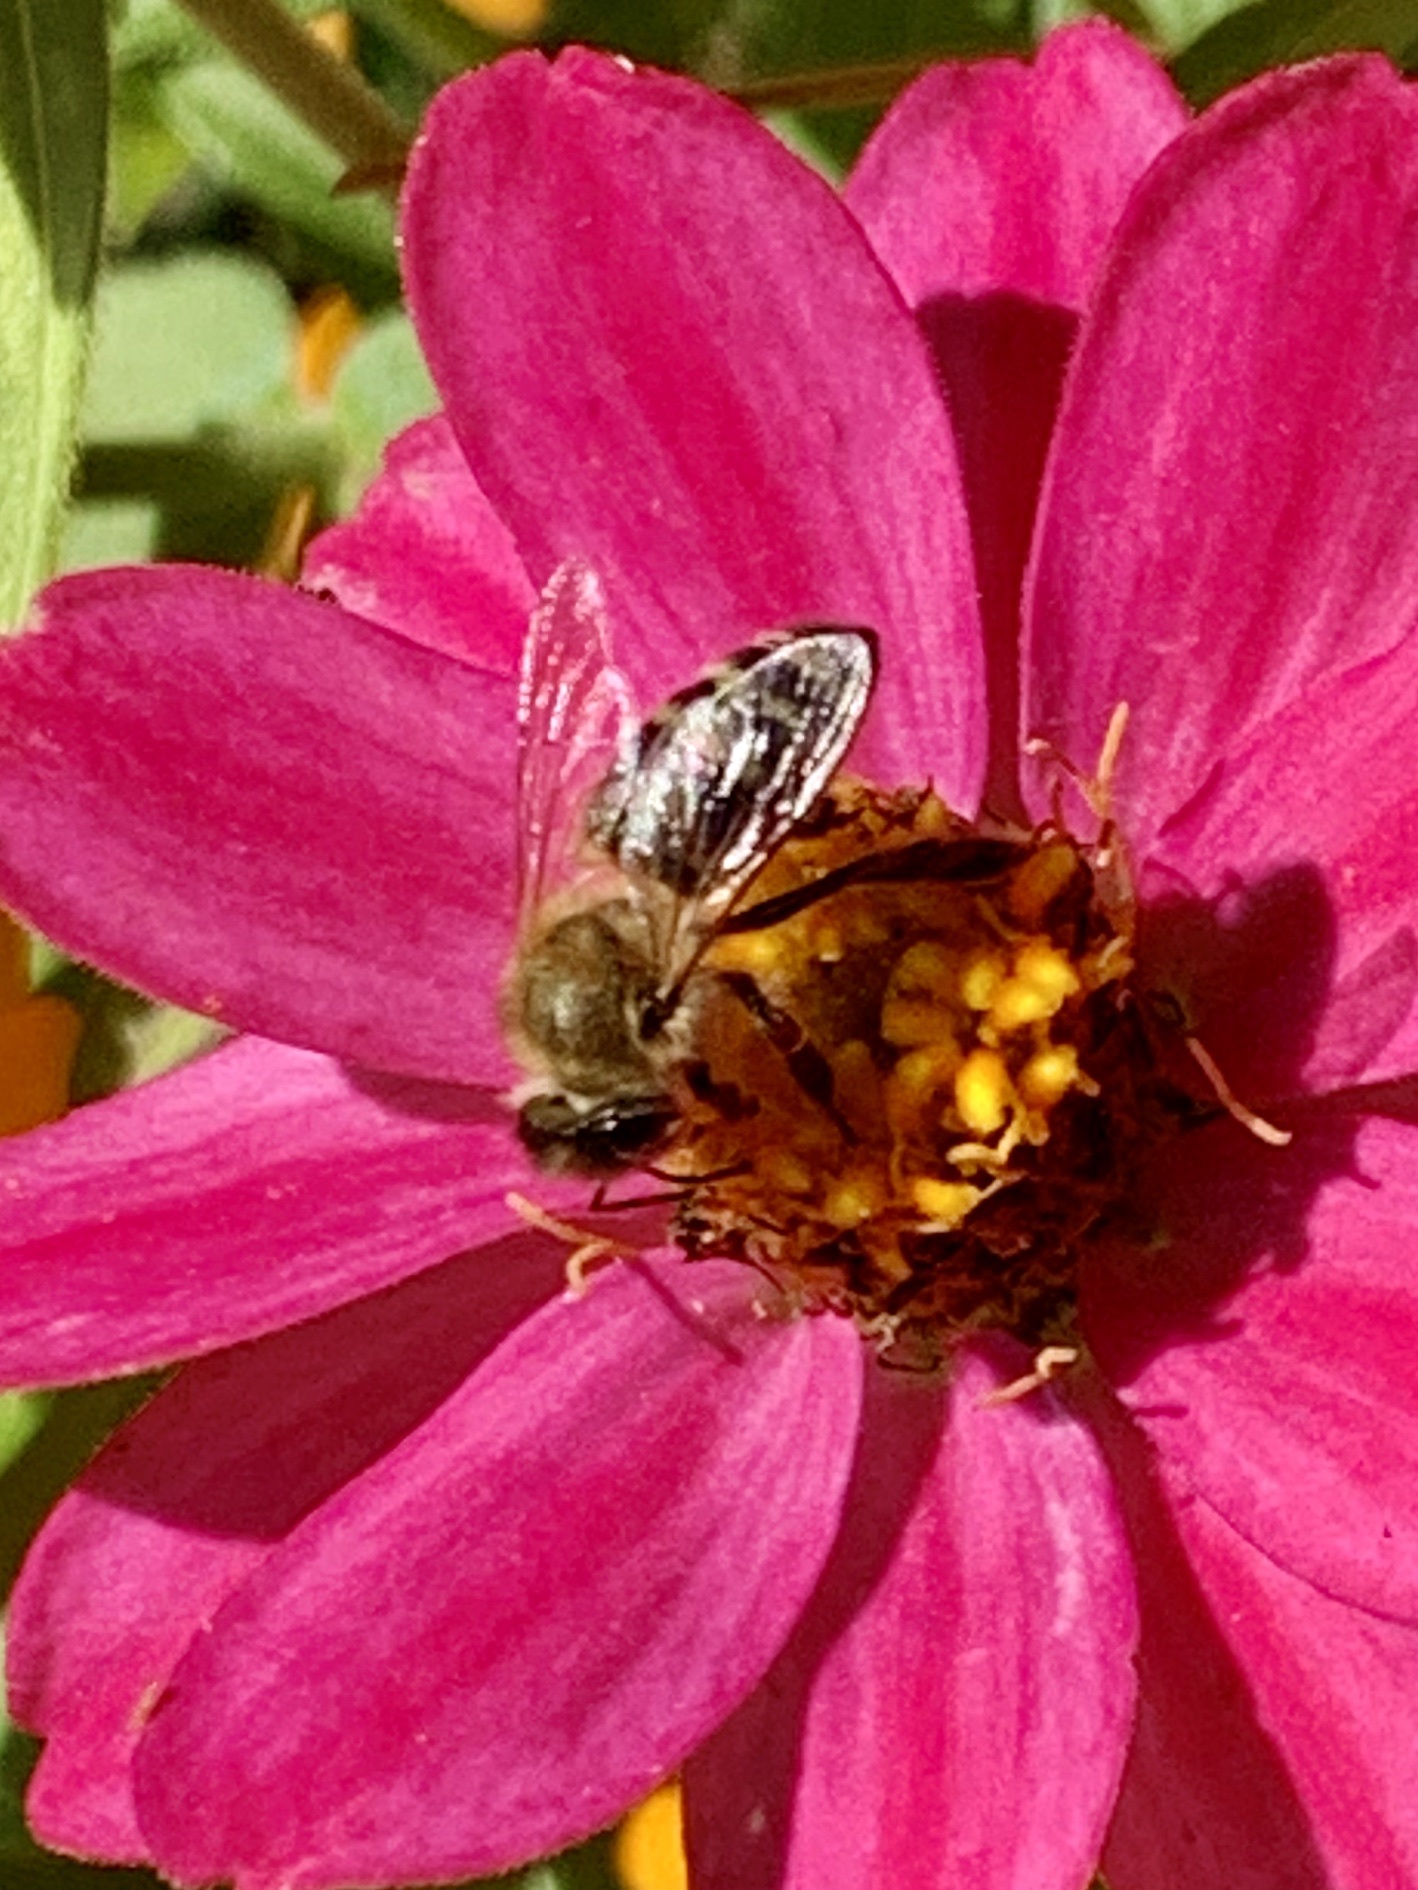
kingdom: Animalia
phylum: Arthropoda
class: Insecta
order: Hymenoptera
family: Apidae
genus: Apis
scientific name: Apis mellifera
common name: Honey bee
